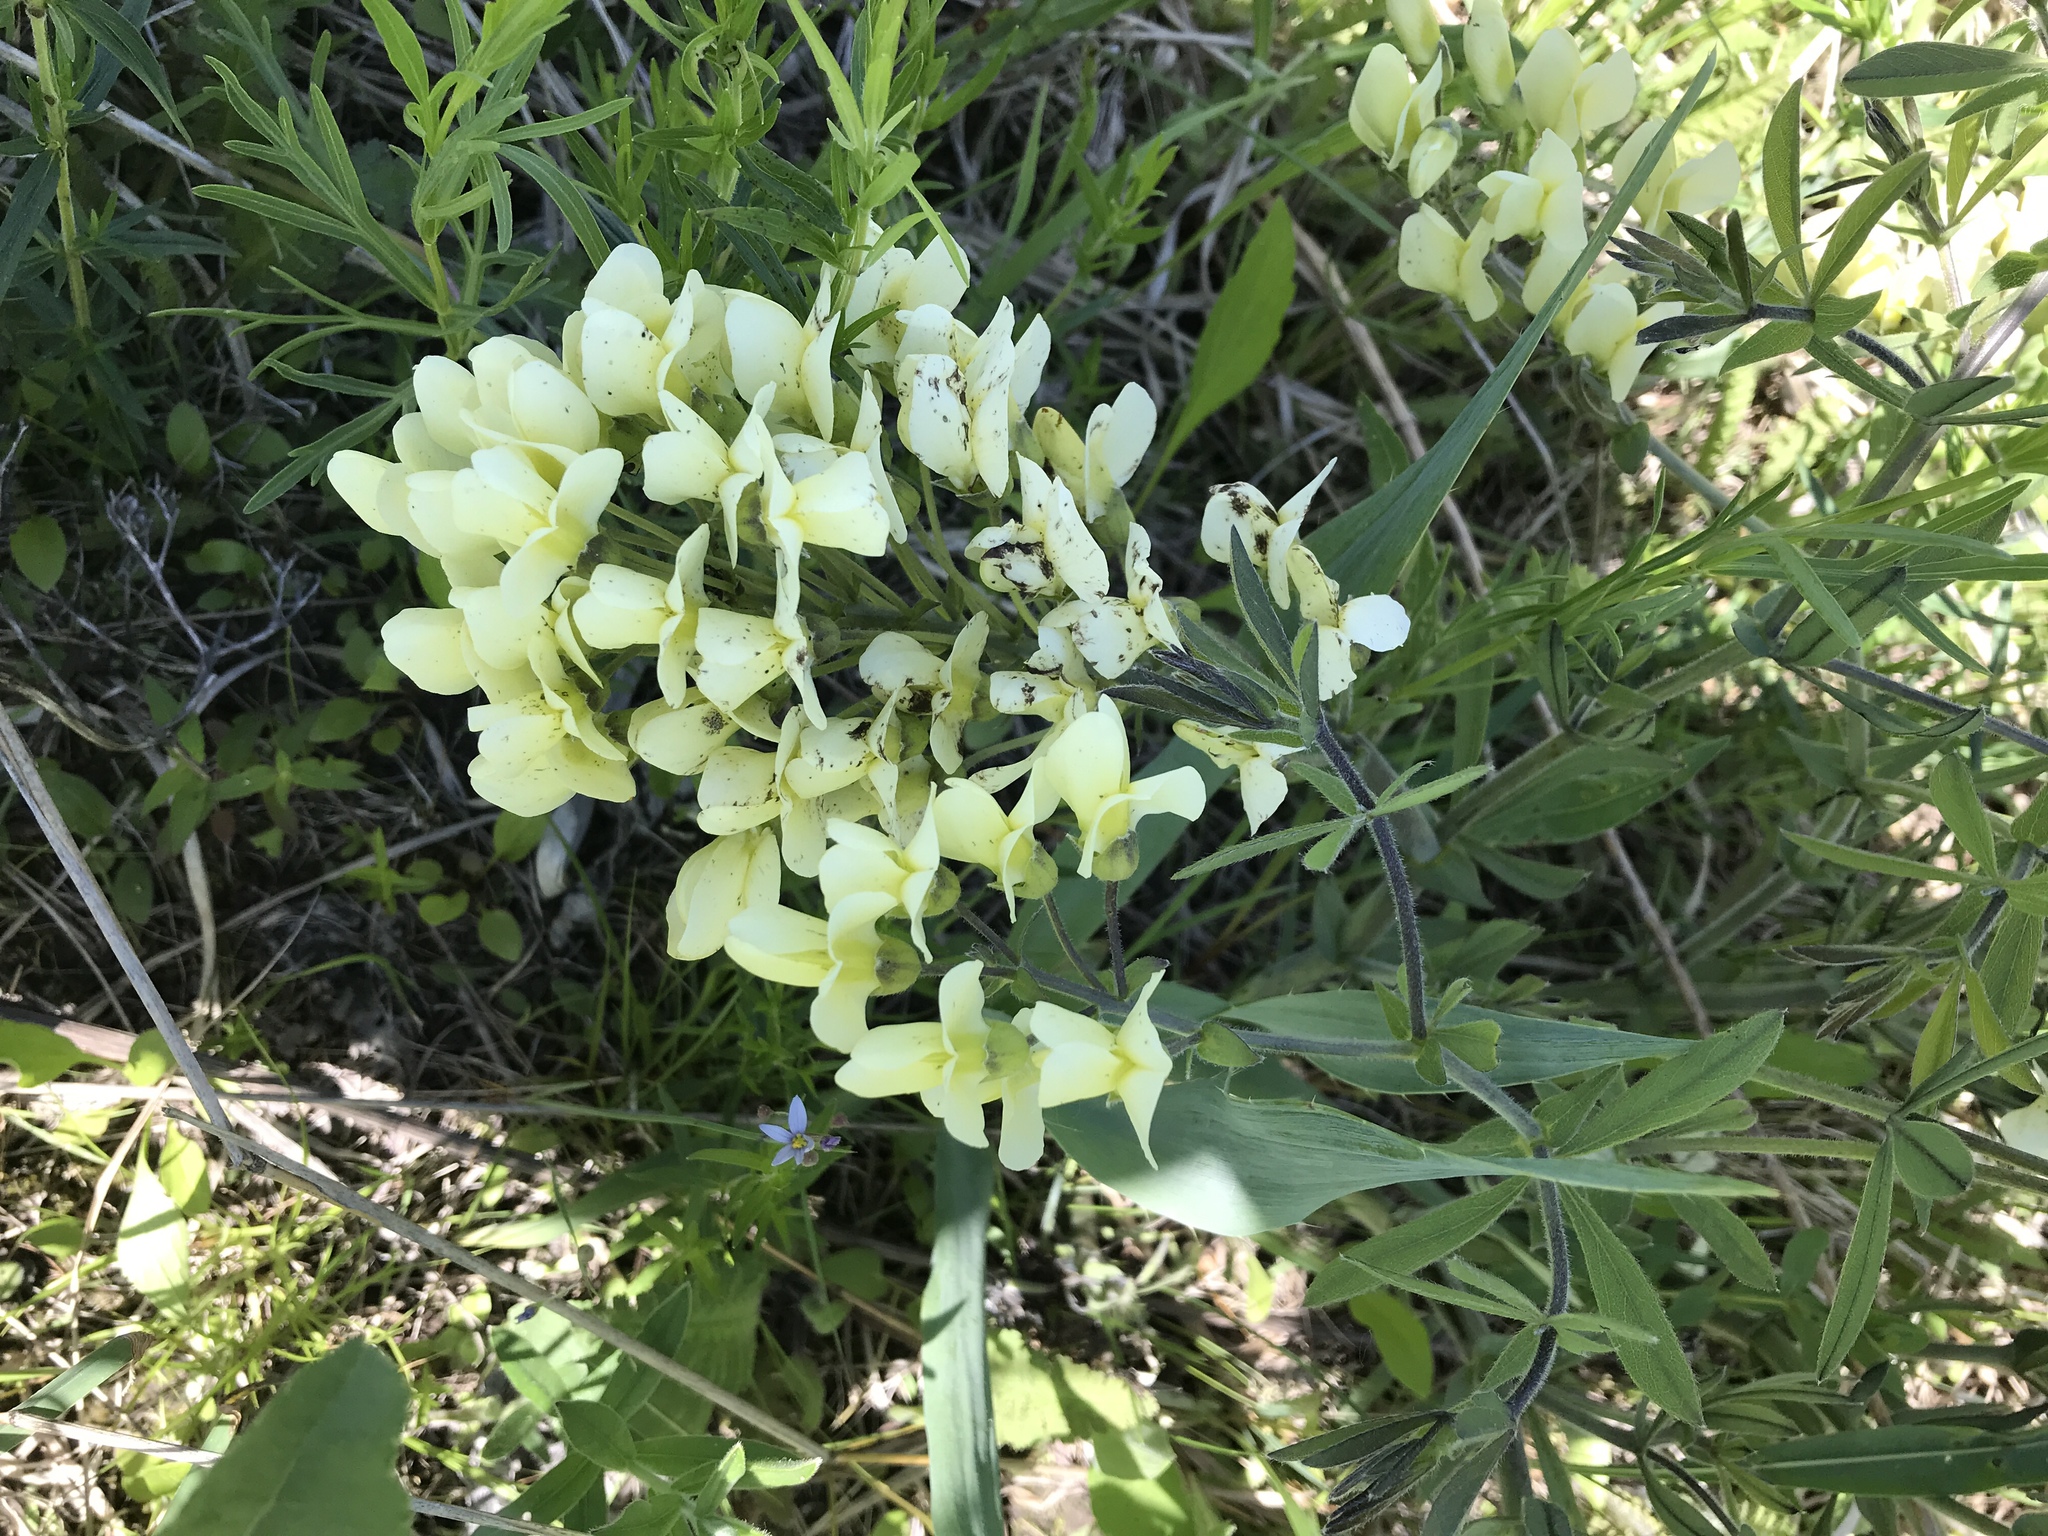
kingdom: Plantae
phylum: Tracheophyta
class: Magnoliopsida
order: Fabales
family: Fabaceae
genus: Baptisia
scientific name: Baptisia bracteata
